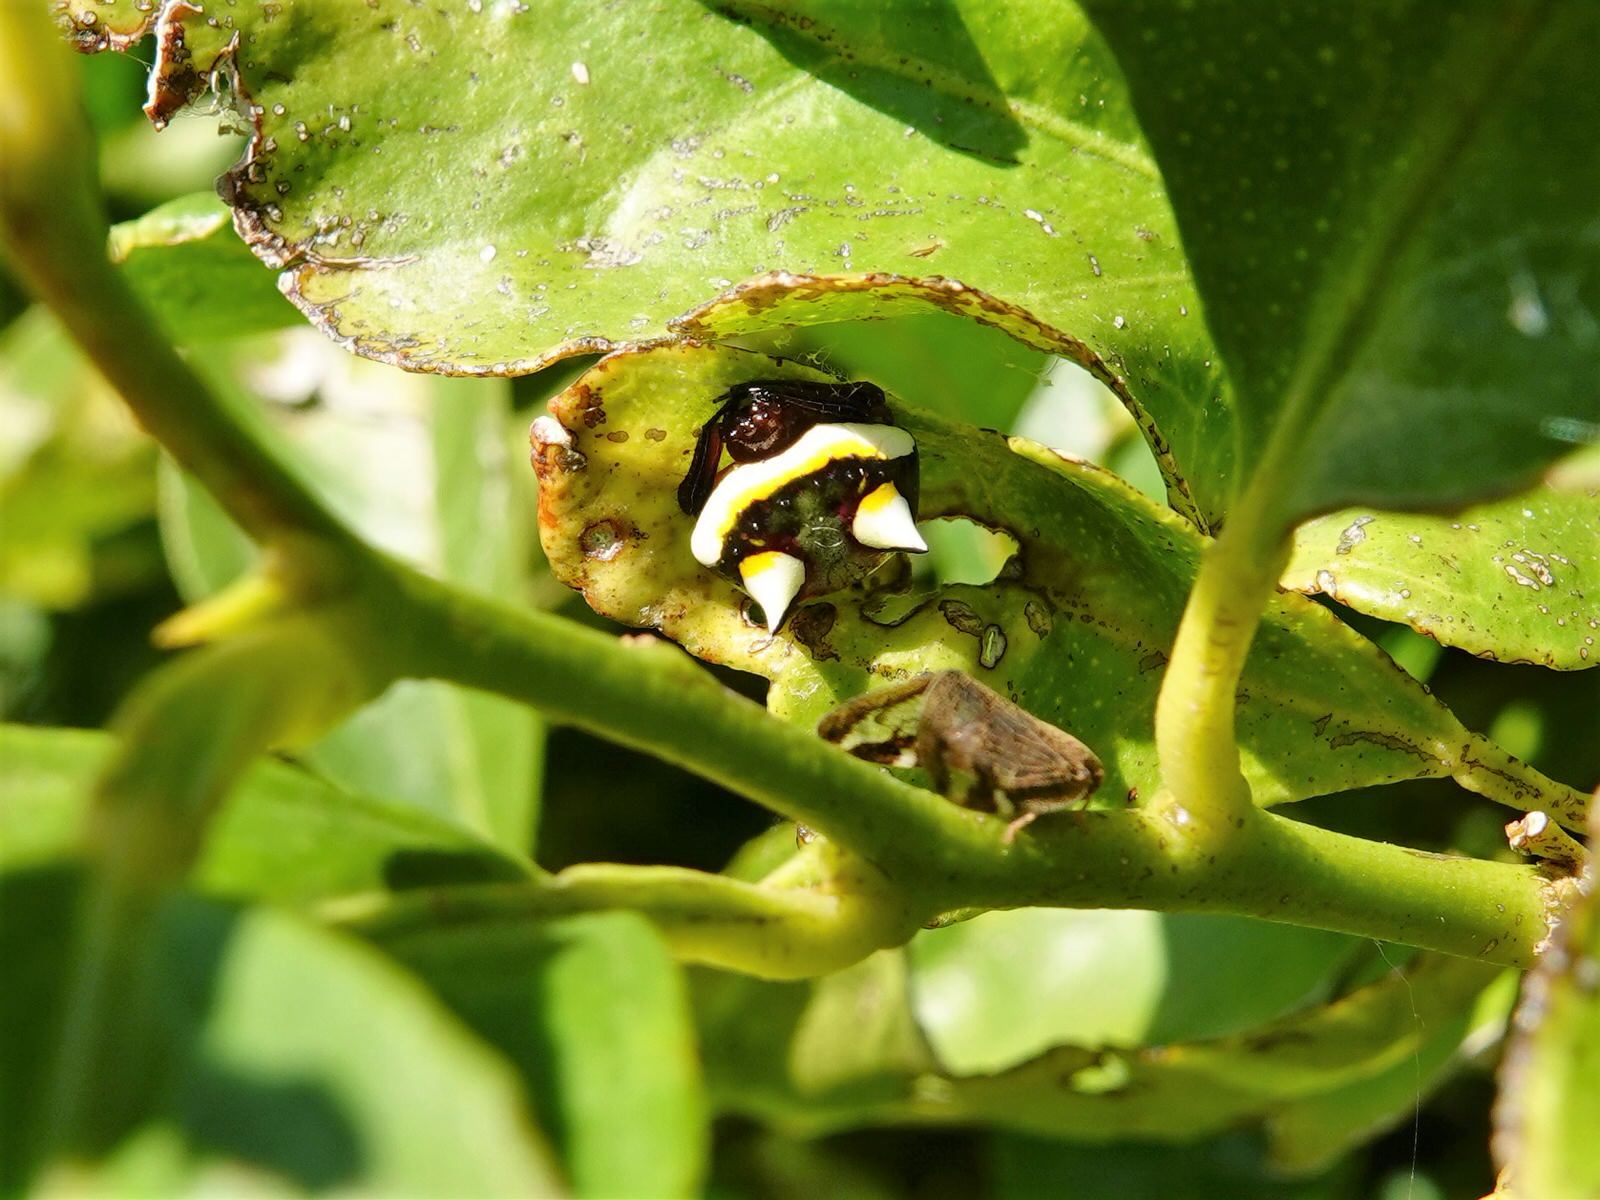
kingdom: Animalia
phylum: Arthropoda
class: Arachnida
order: Araneae
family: Araneidae
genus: Poecilopachys
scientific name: Poecilopachys australasia
